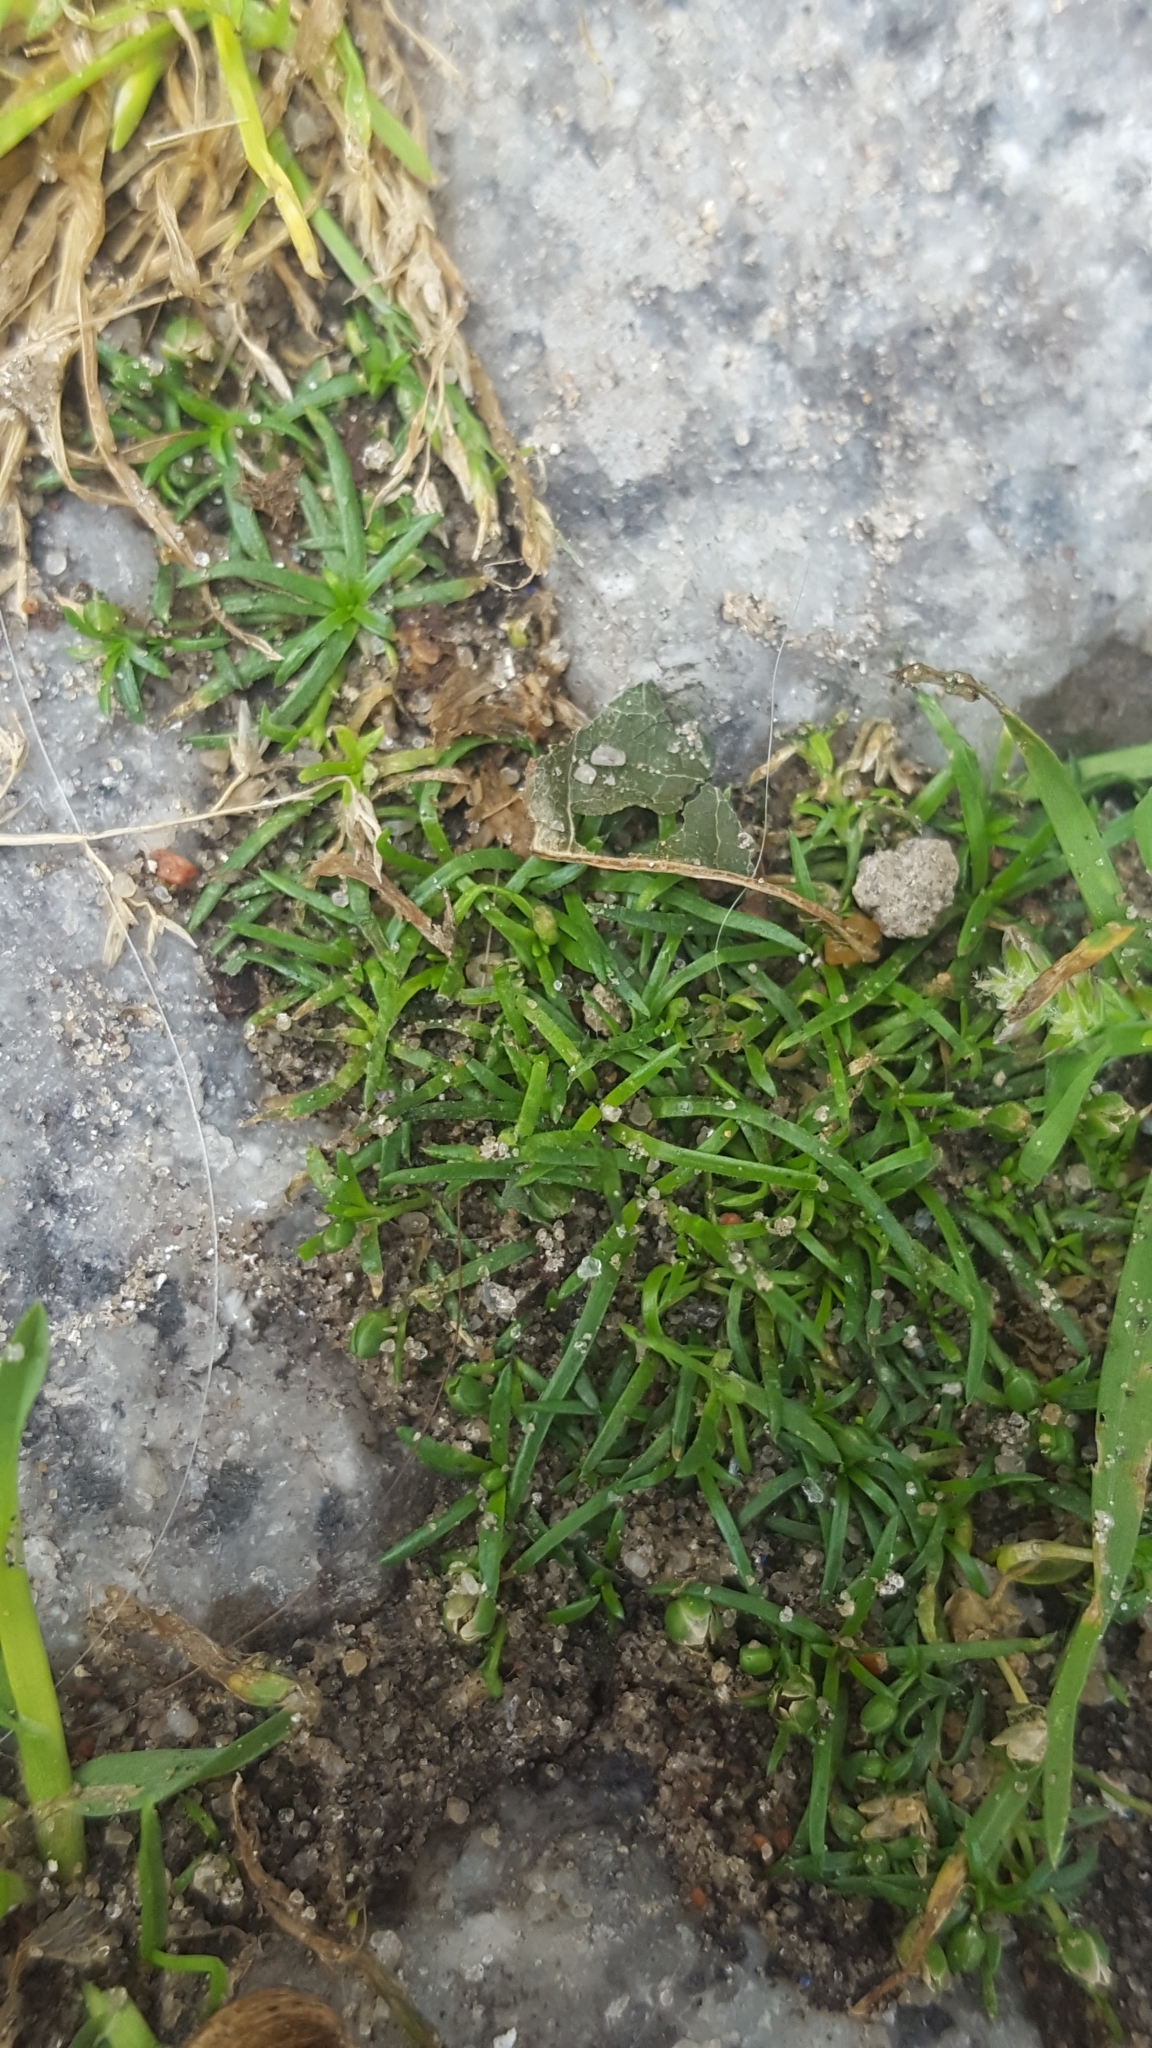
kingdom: Plantae
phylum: Tracheophyta
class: Magnoliopsida
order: Caryophyllales
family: Caryophyllaceae
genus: Sagina
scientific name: Sagina procumbens
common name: Procumbent pearlwort
